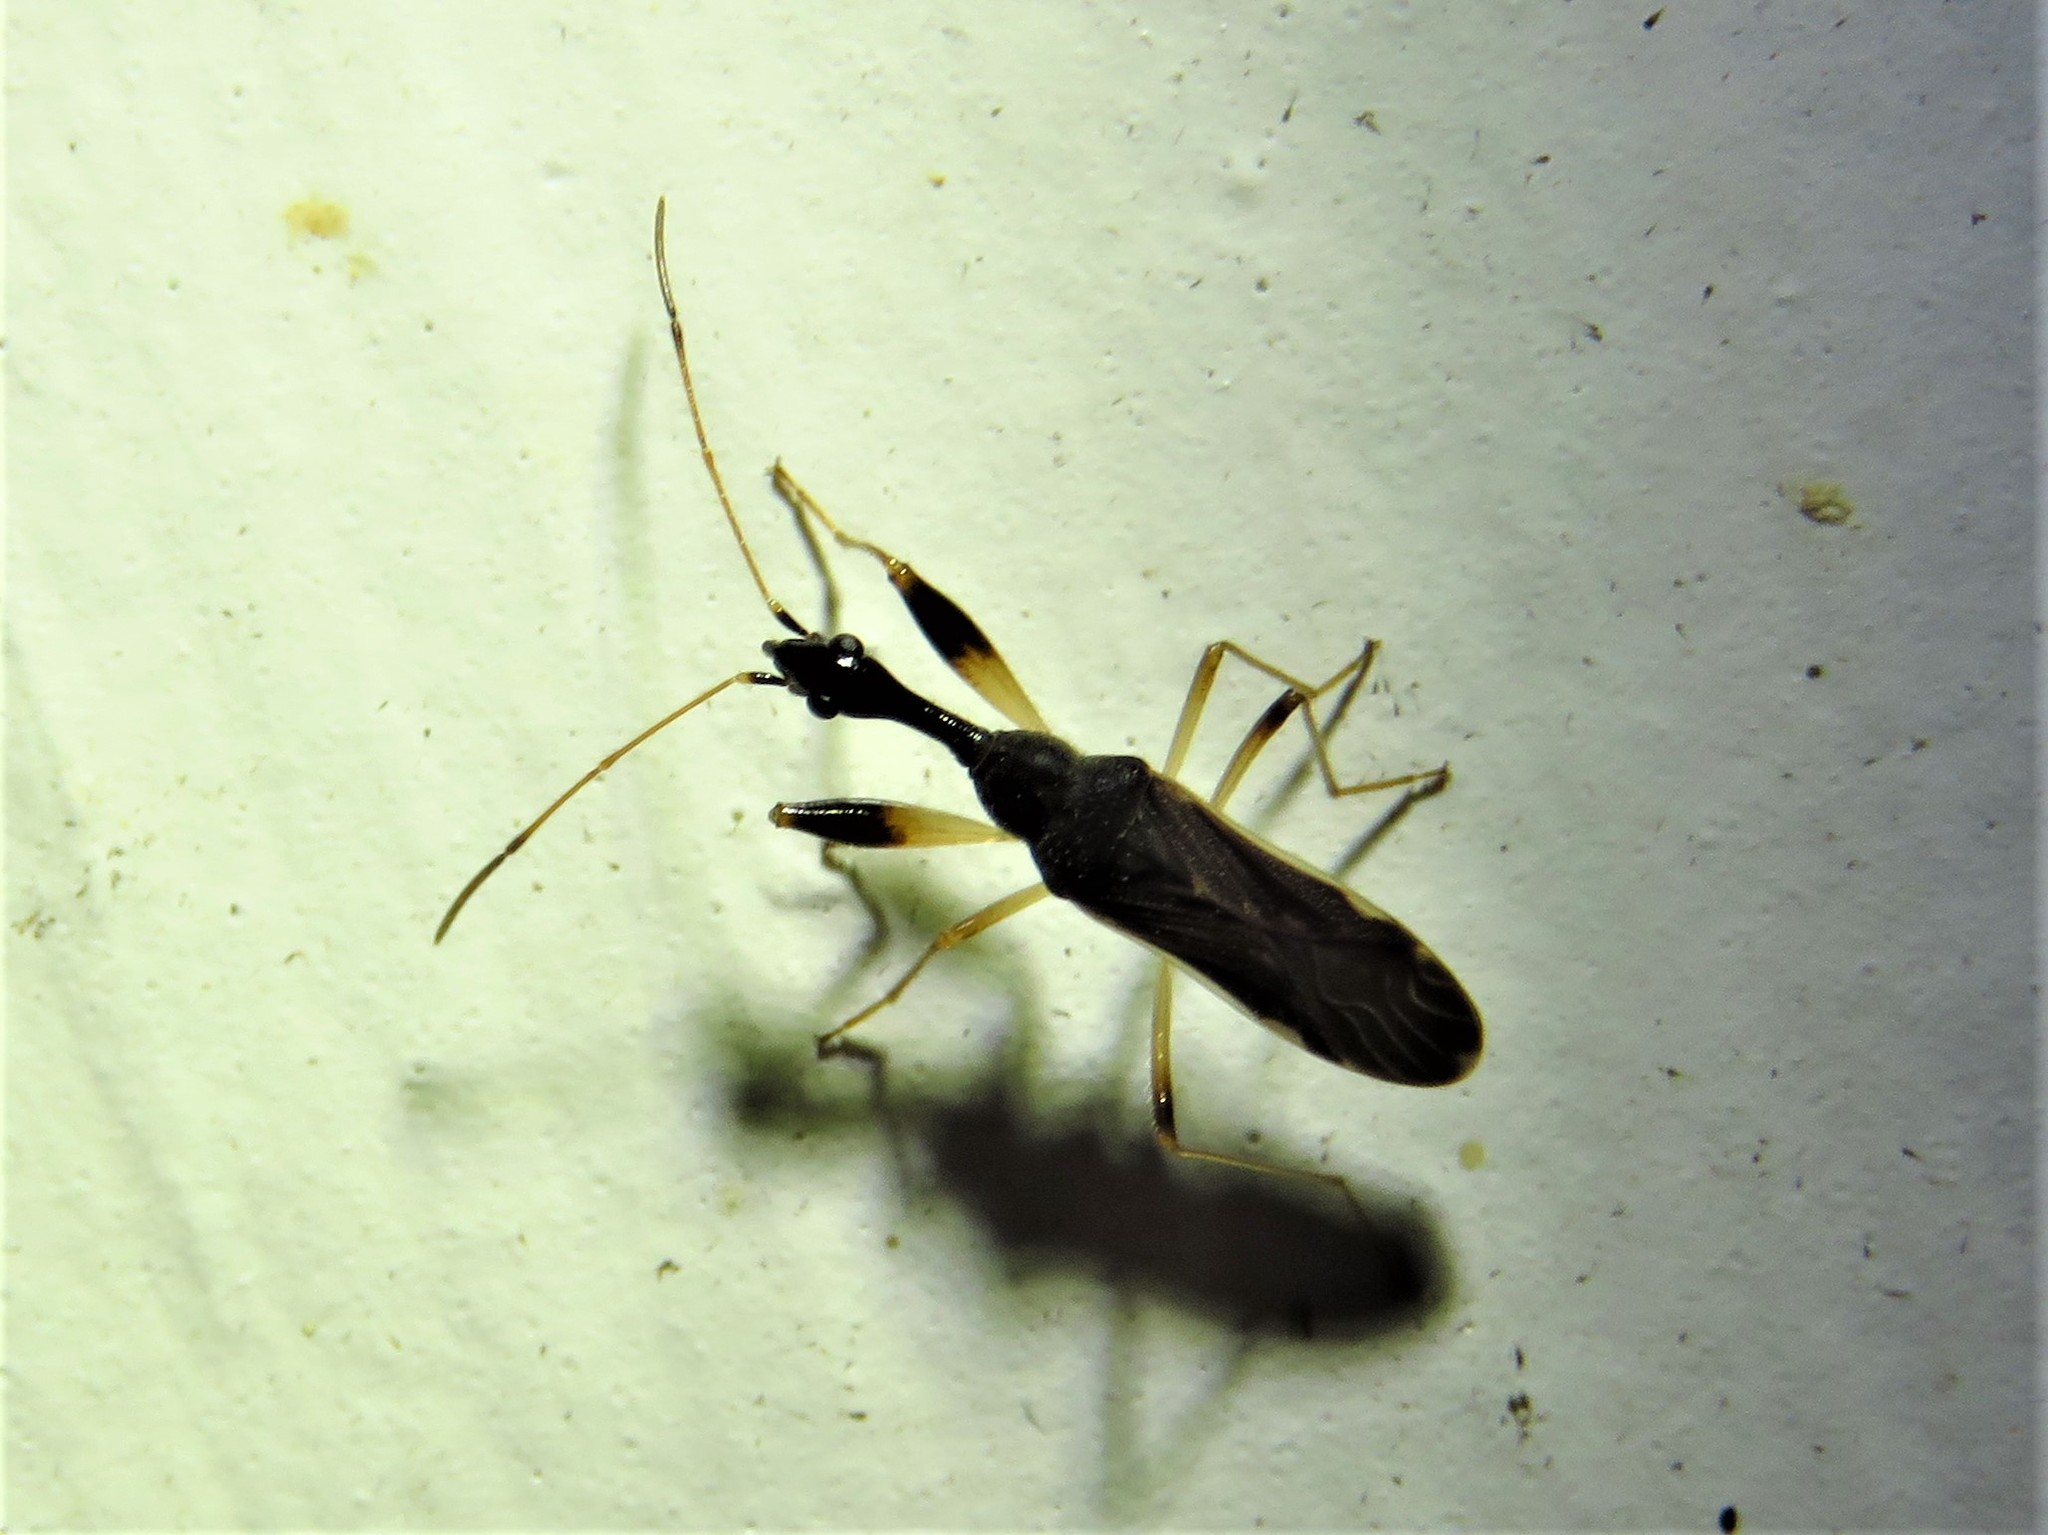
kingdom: Animalia
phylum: Arthropoda
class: Insecta
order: Hemiptera
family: Rhyparochromidae
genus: Myodocha
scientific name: Myodocha serripes
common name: Long-necked seed bug
